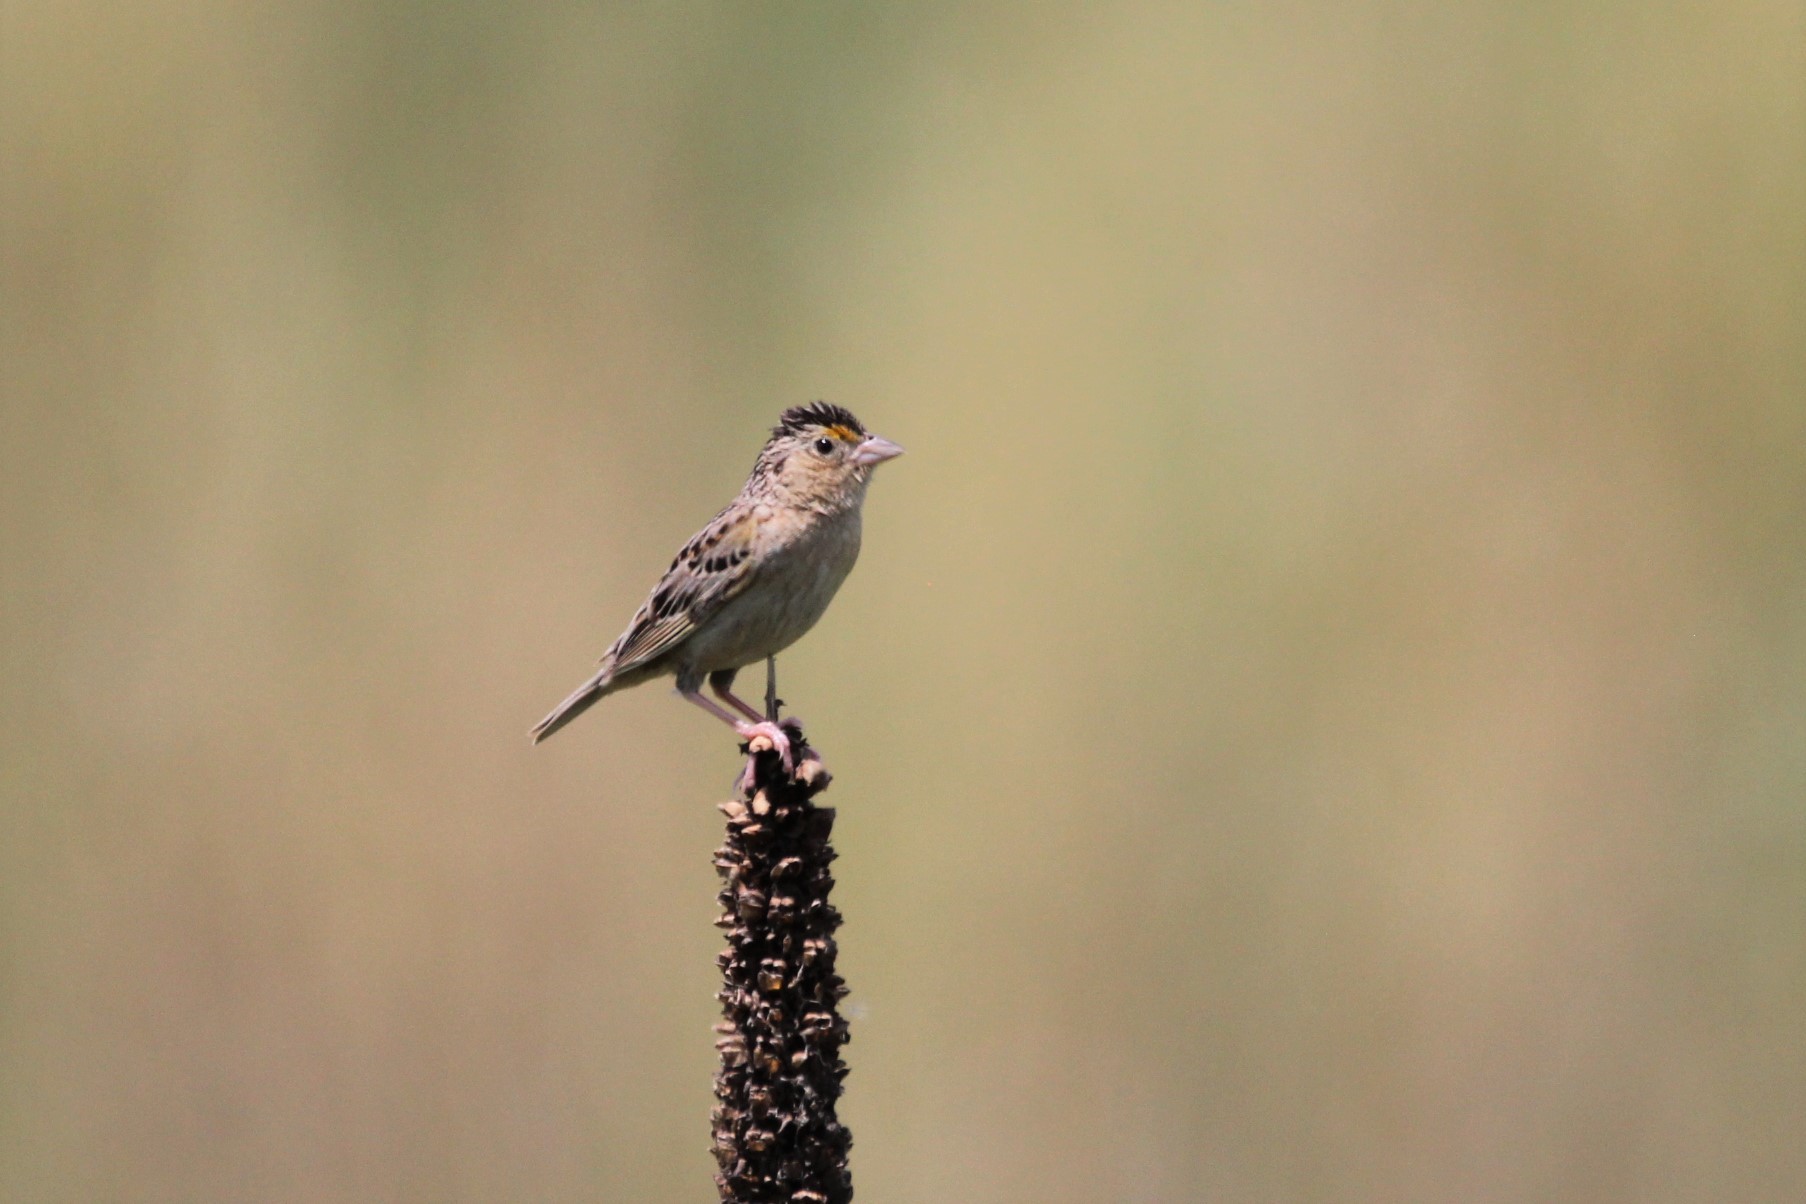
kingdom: Animalia
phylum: Chordata
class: Aves
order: Passeriformes
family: Passerellidae
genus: Ammodramus
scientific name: Ammodramus savannarum
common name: Grasshopper sparrow
